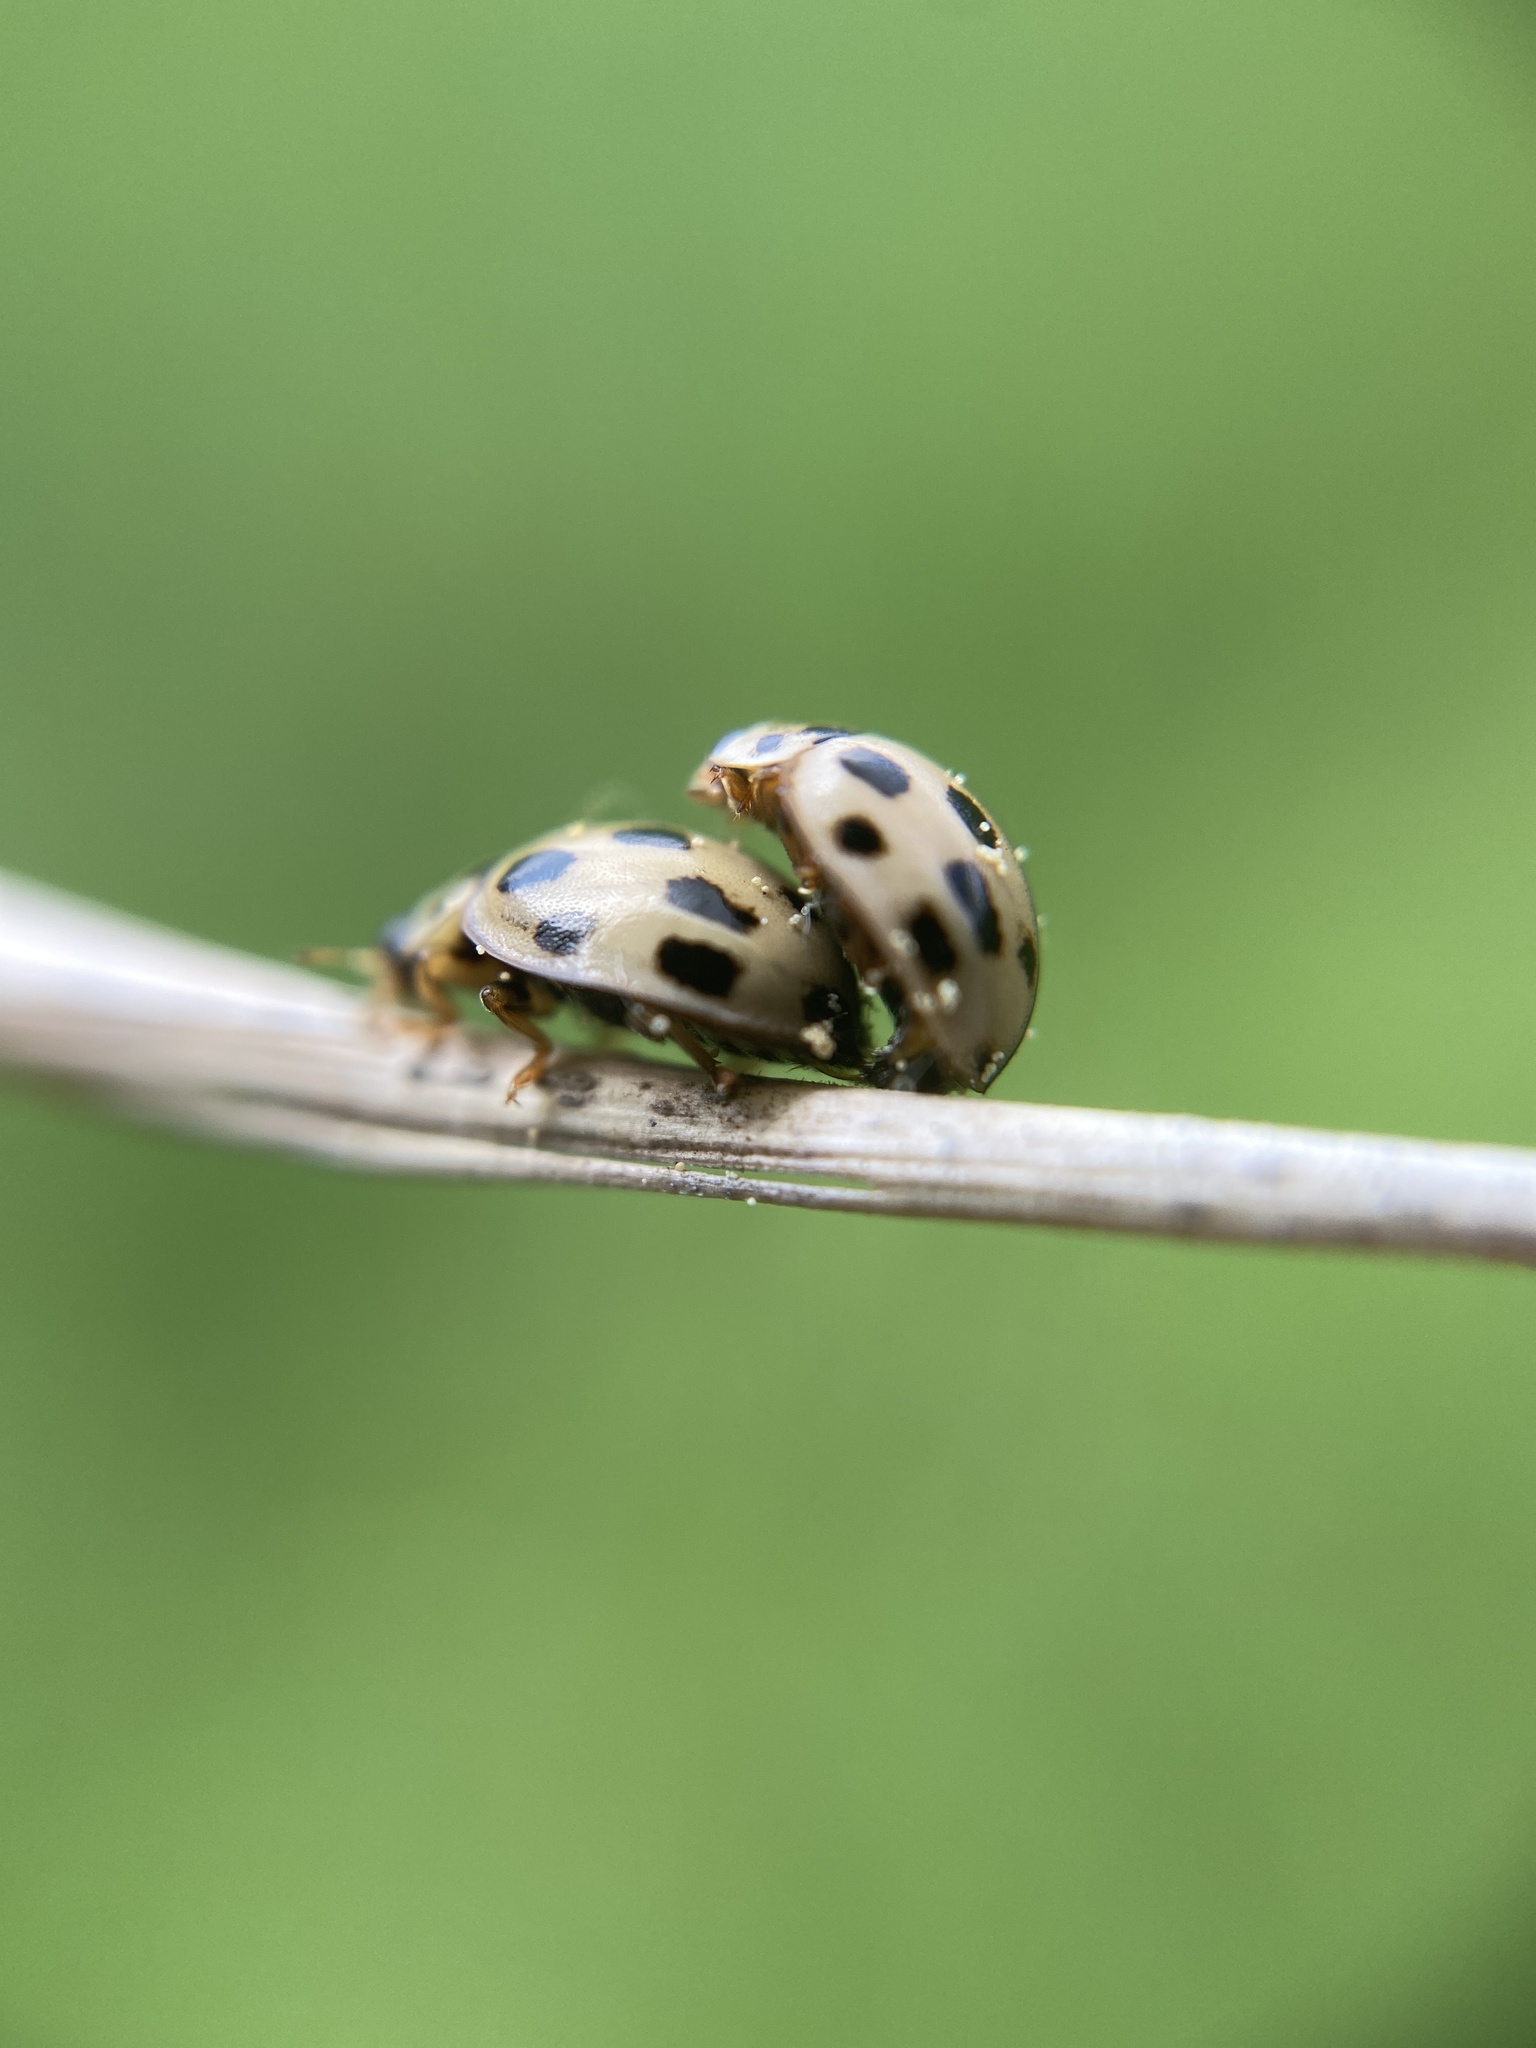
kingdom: Animalia
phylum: Arthropoda
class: Insecta
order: Coleoptera
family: Coccinellidae
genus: Propylaea
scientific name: Propylaea quatuordecimpunctata
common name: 14-spotted ladybird beetle
